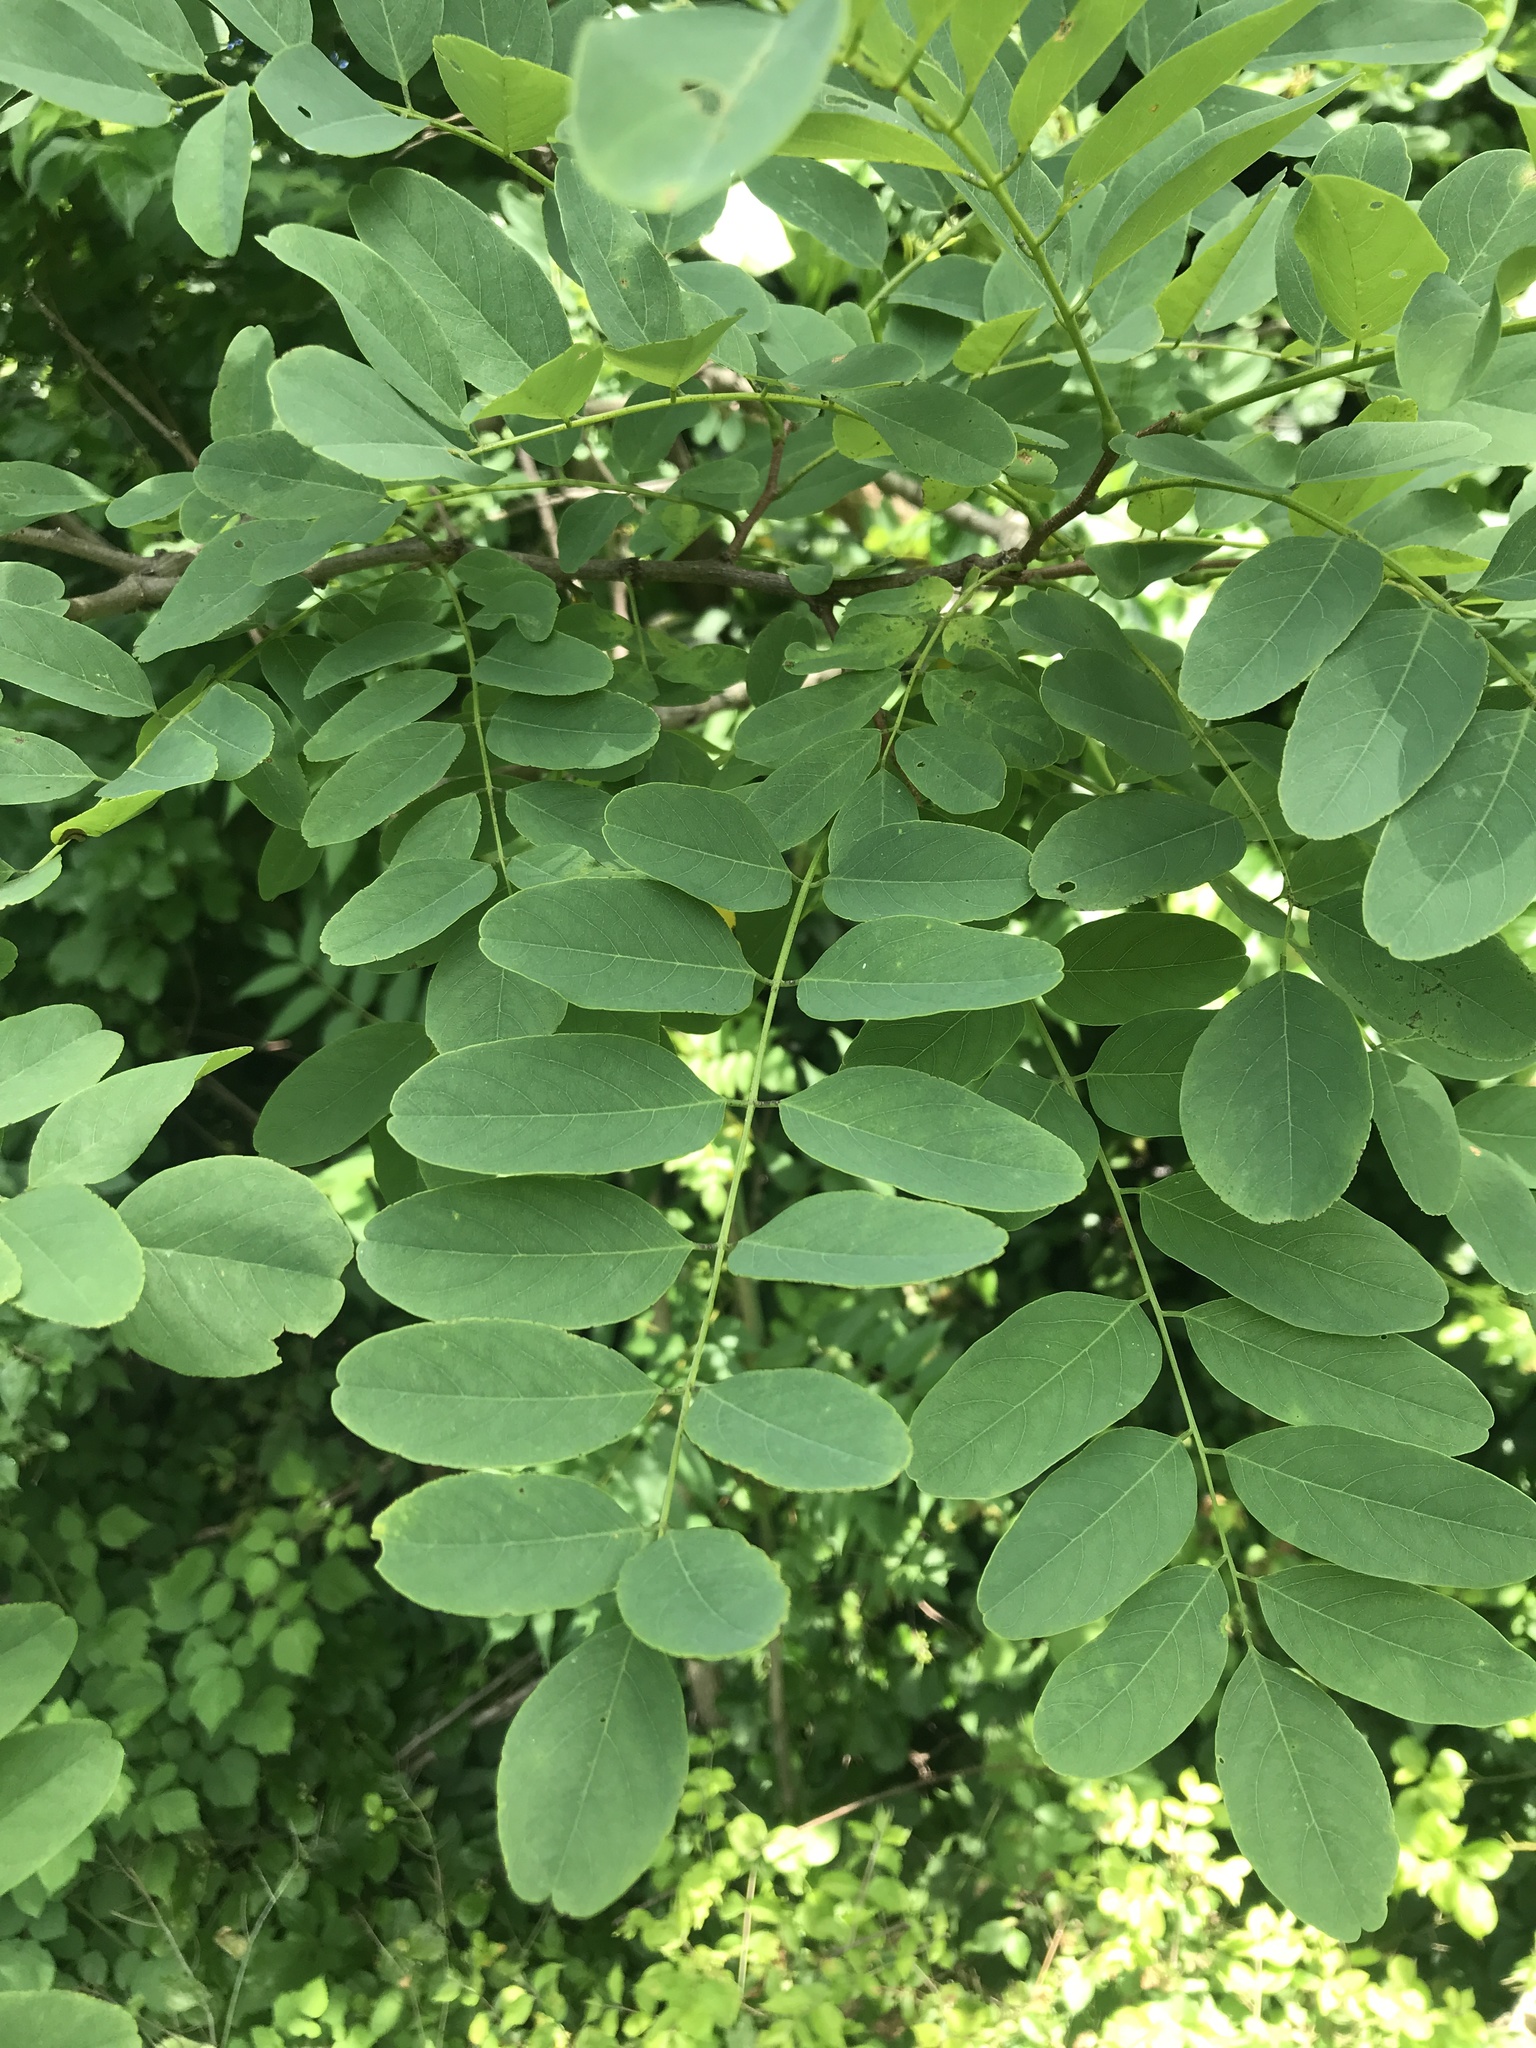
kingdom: Plantae
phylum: Tracheophyta
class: Magnoliopsida
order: Fabales
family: Fabaceae
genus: Robinia
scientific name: Robinia pseudoacacia
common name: Black locust
